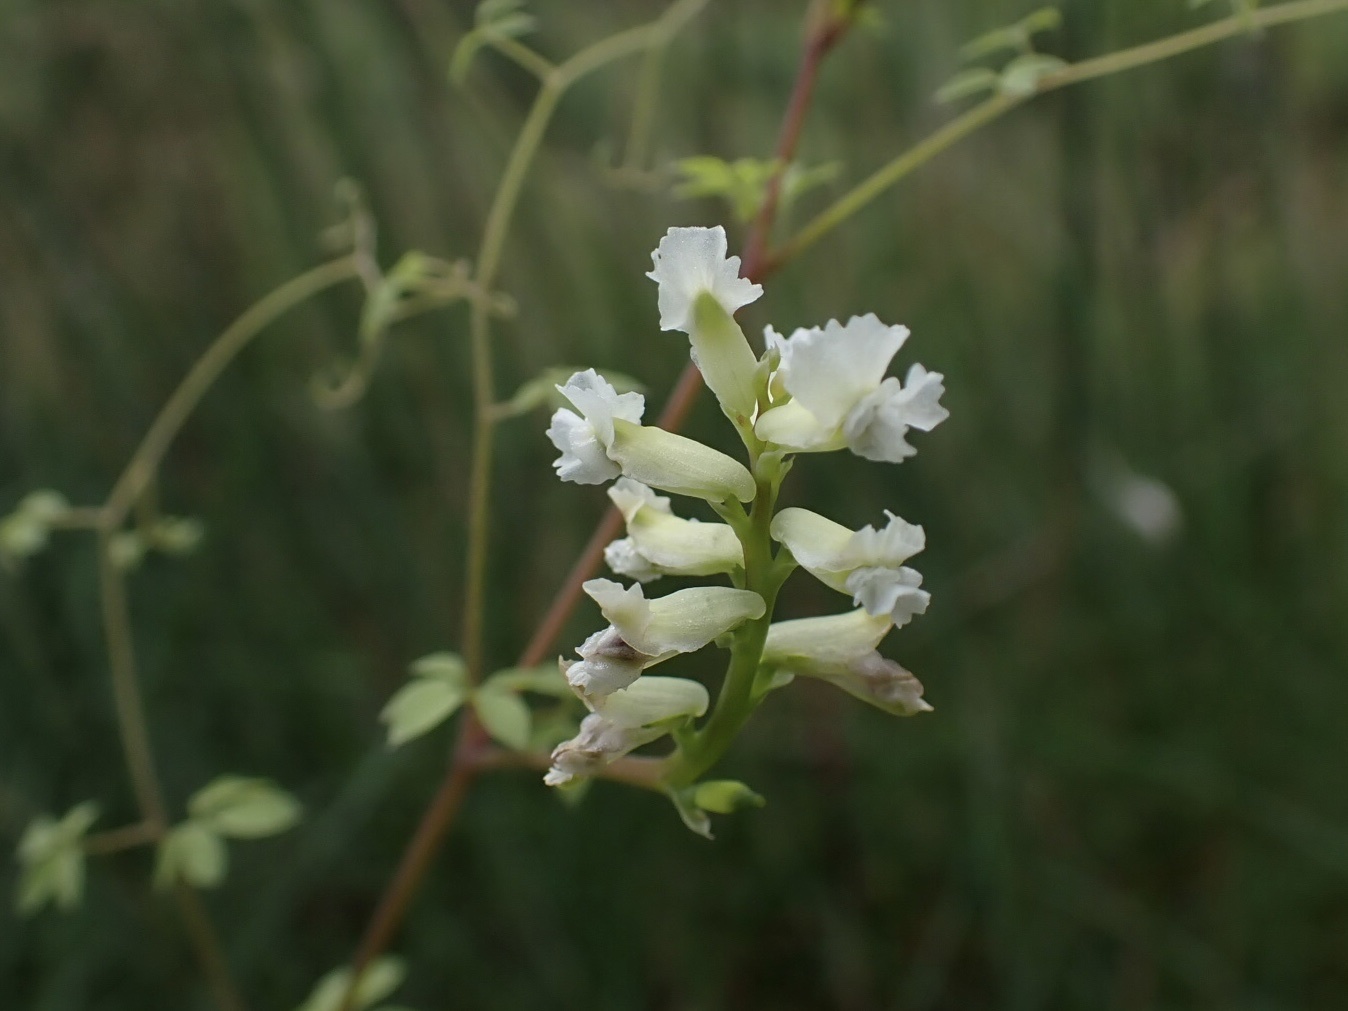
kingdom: Plantae
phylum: Tracheophyta
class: Magnoliopsida
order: Ranunculales
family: Papaveraceae
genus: Ceratocapnos
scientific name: Ceratocapnos claviculata
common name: Climbing corydalis
